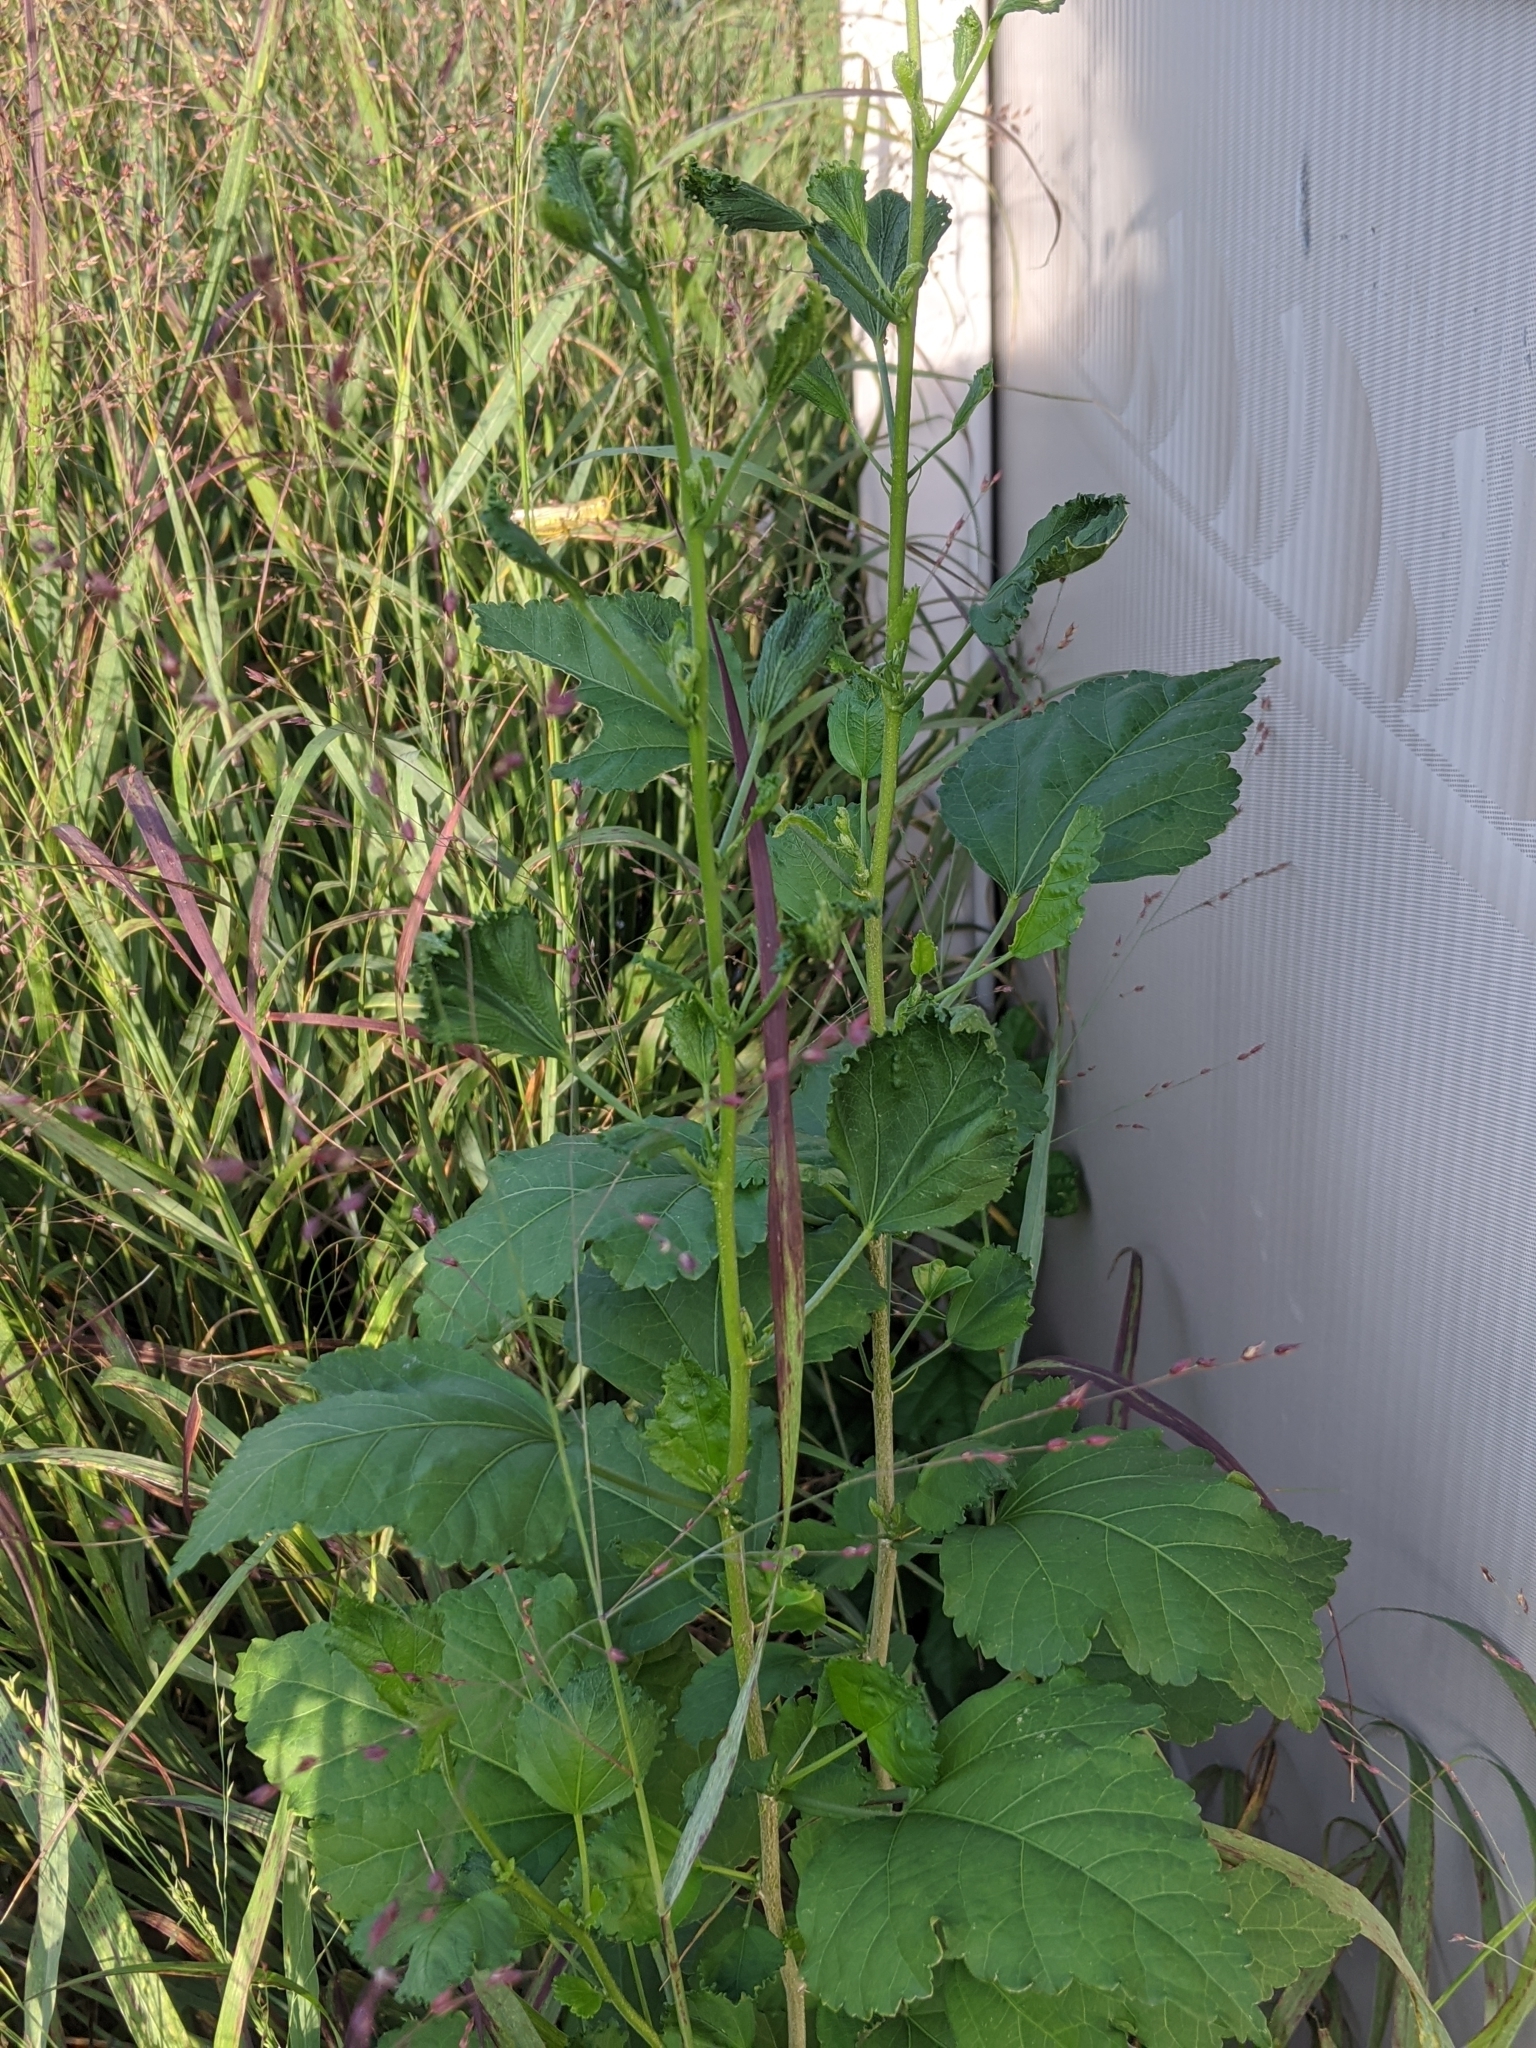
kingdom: Plantae
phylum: Tracheophyta
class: Magnoliopsida
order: Rosales
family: Moraceae
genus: Morus
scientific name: Morus
